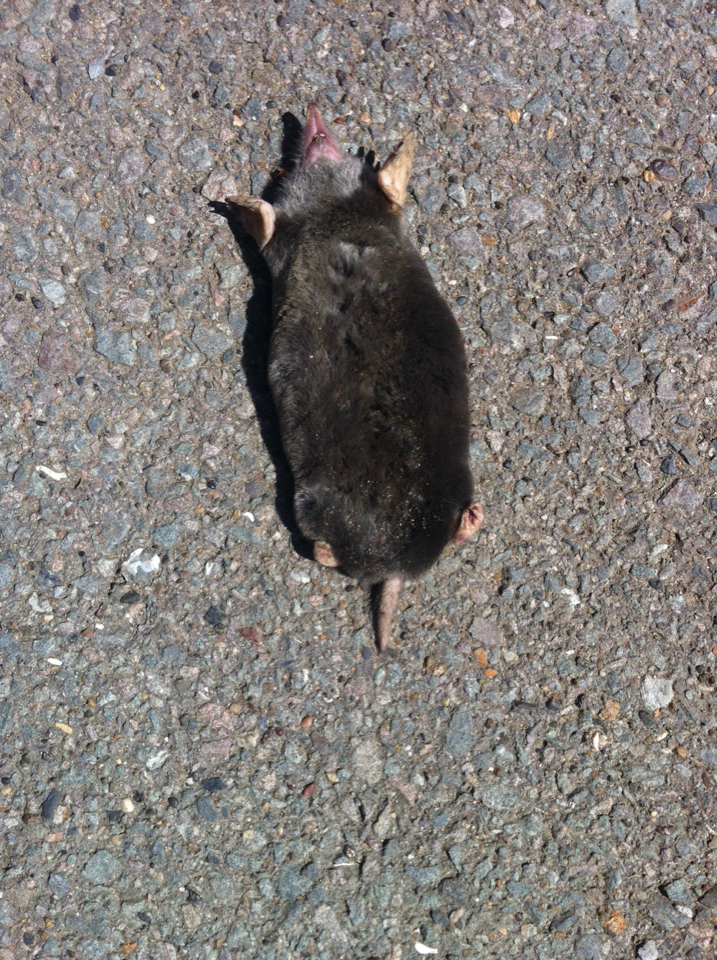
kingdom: Animalia
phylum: Chordata
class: Mammalia
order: Soricomorpha
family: Talpidae
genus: Scapanus
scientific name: Scapanus latimanus
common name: Broad-footed mole
